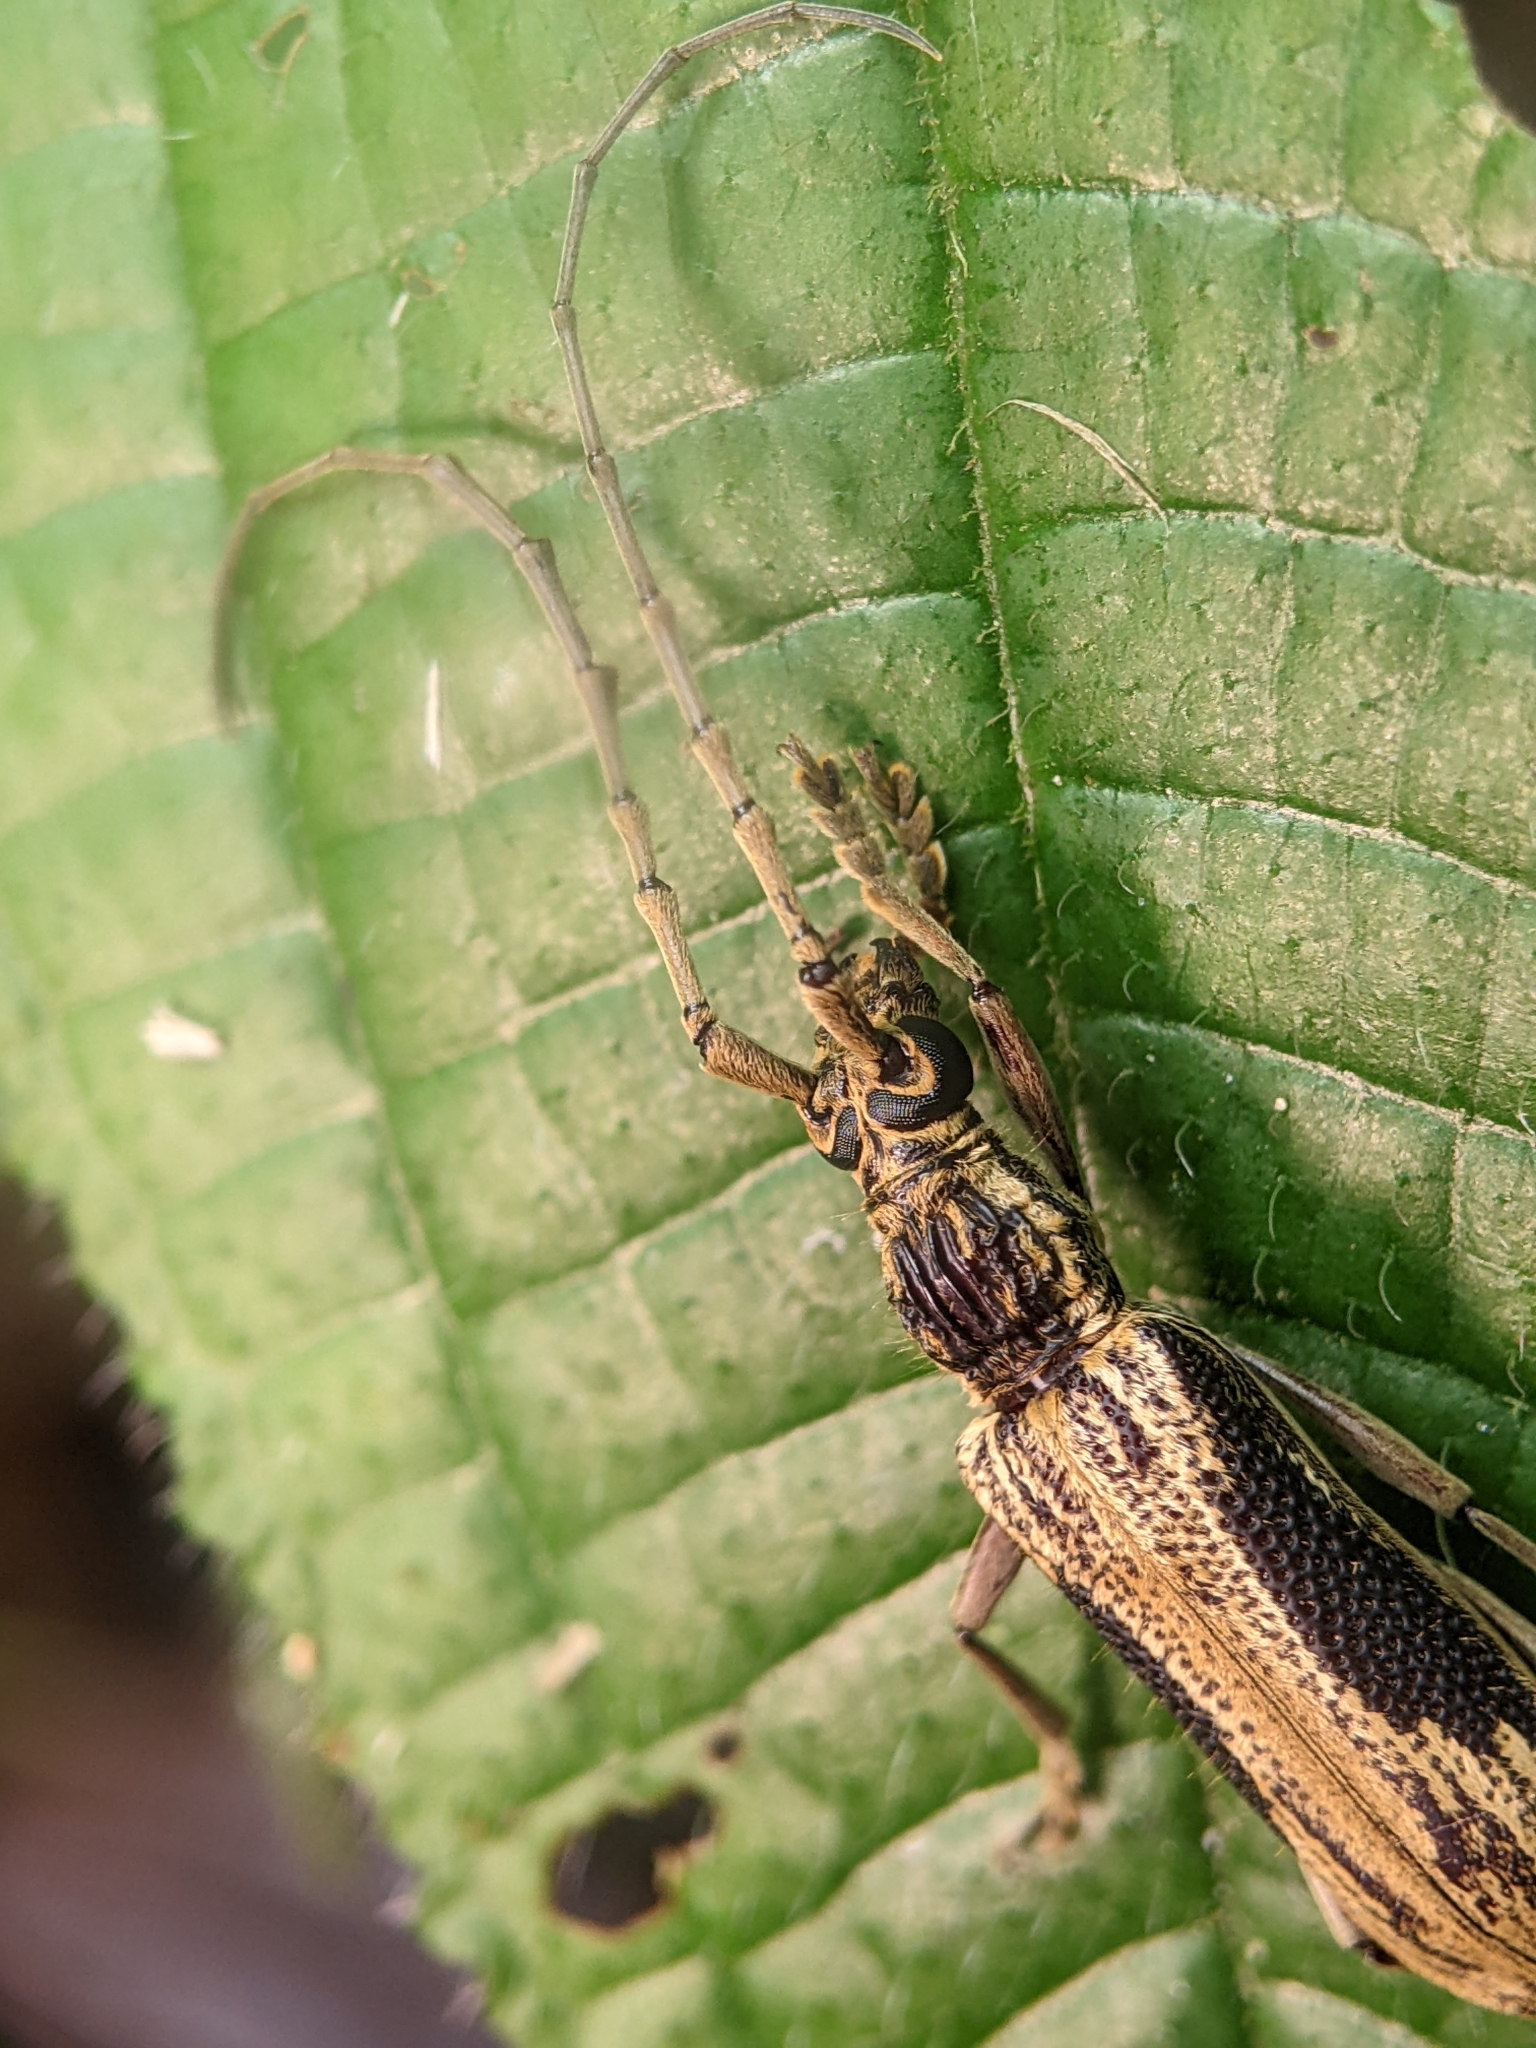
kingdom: Animalia
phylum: Arthropoda
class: Insecta
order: Coleoptera
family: Cerambycidae
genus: Xoanodera
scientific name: Xoanodera trigona
